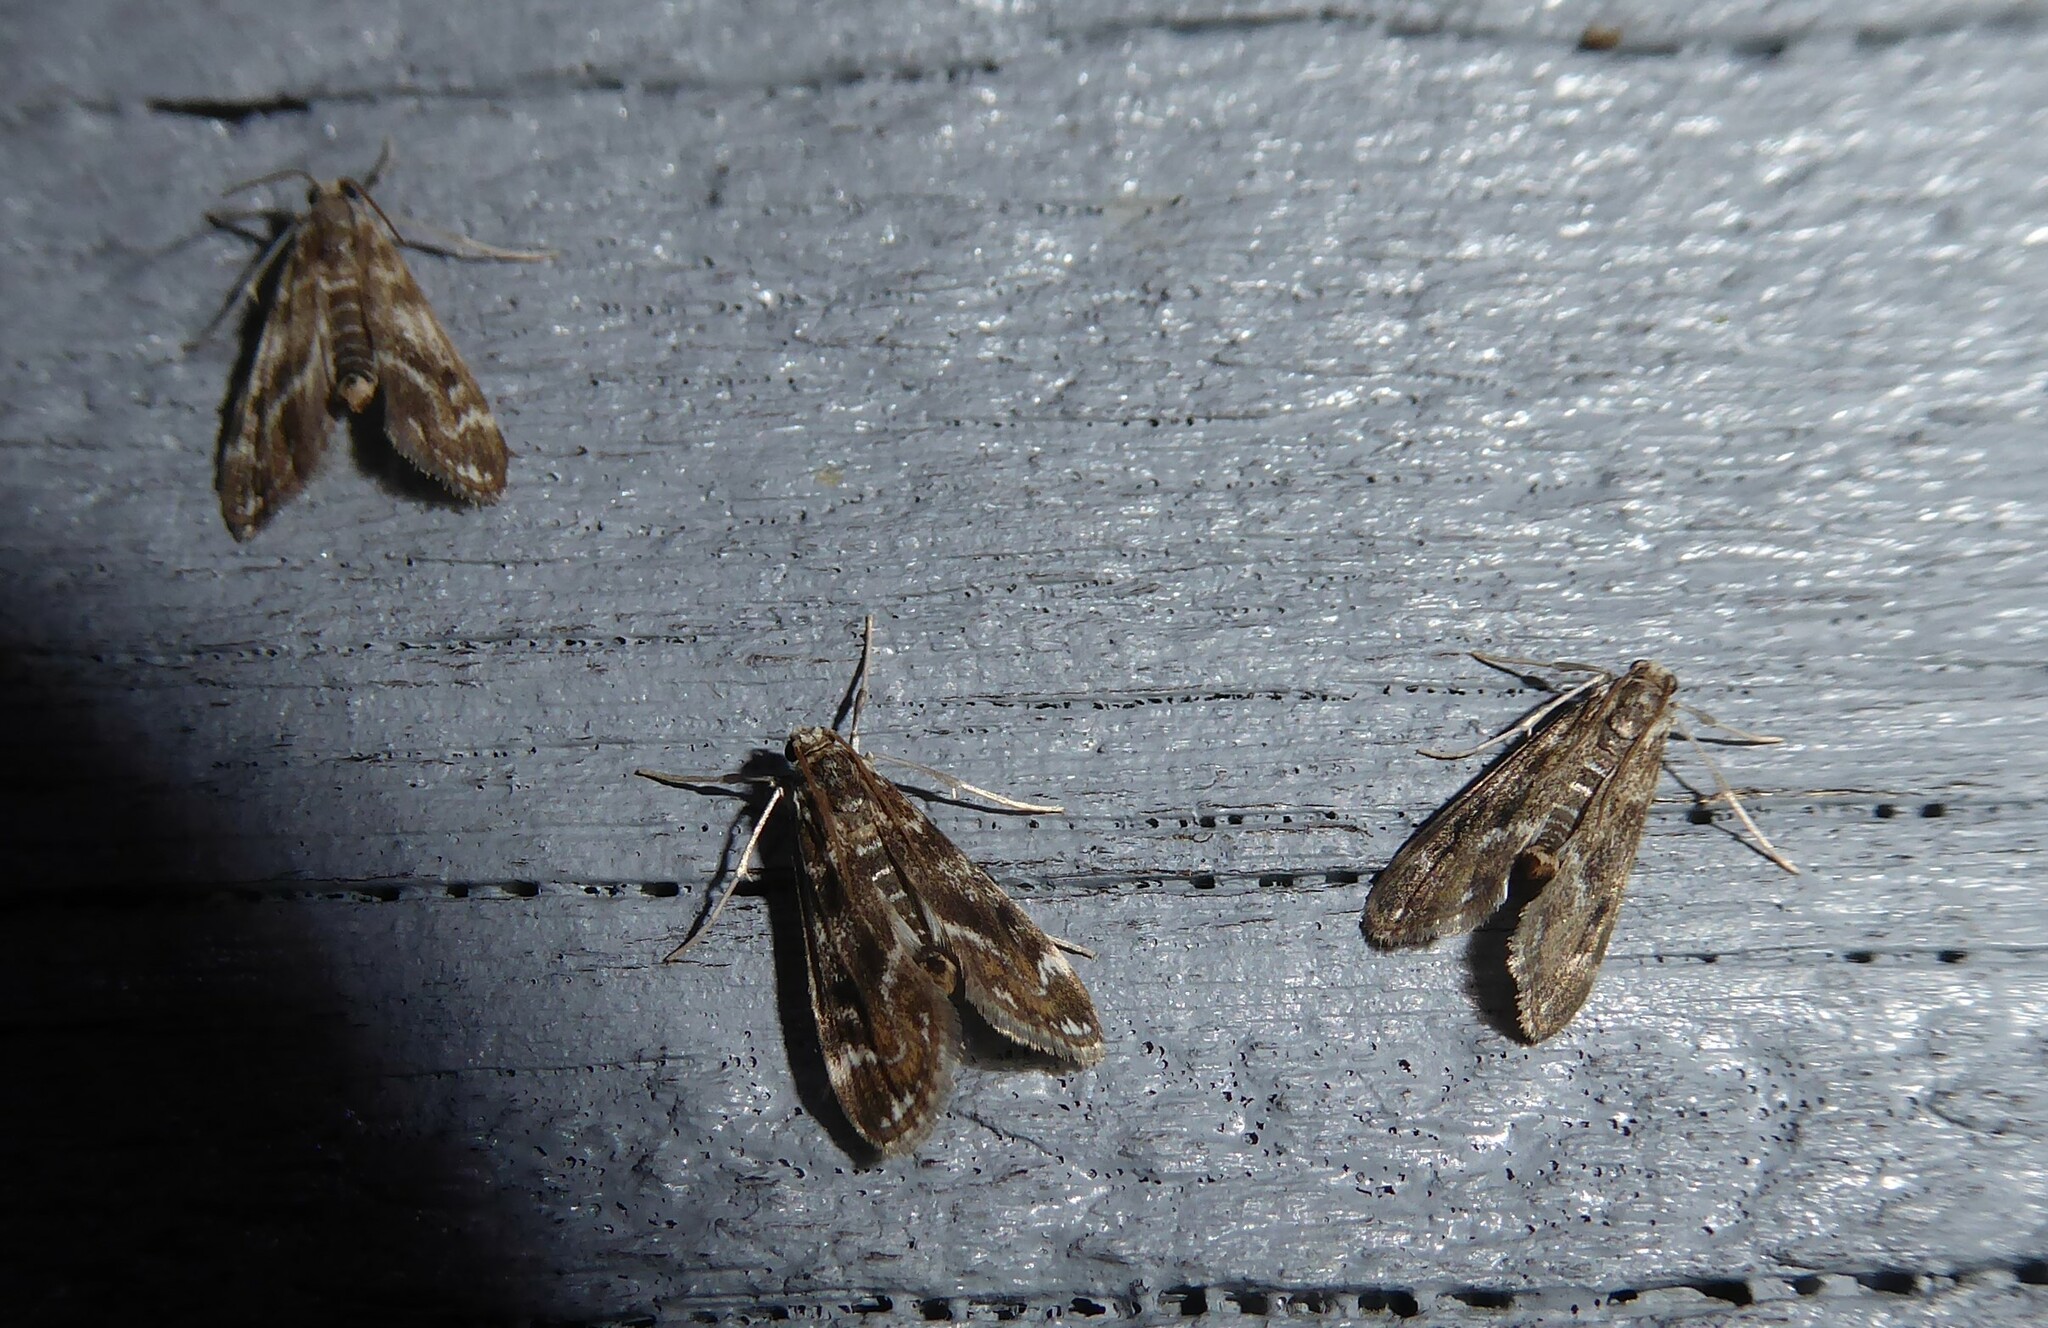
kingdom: Animalia
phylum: Arthropoda
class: Insecta
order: Lepidoptera
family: Crambidae
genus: Hygraula
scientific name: Hygraula nitens
